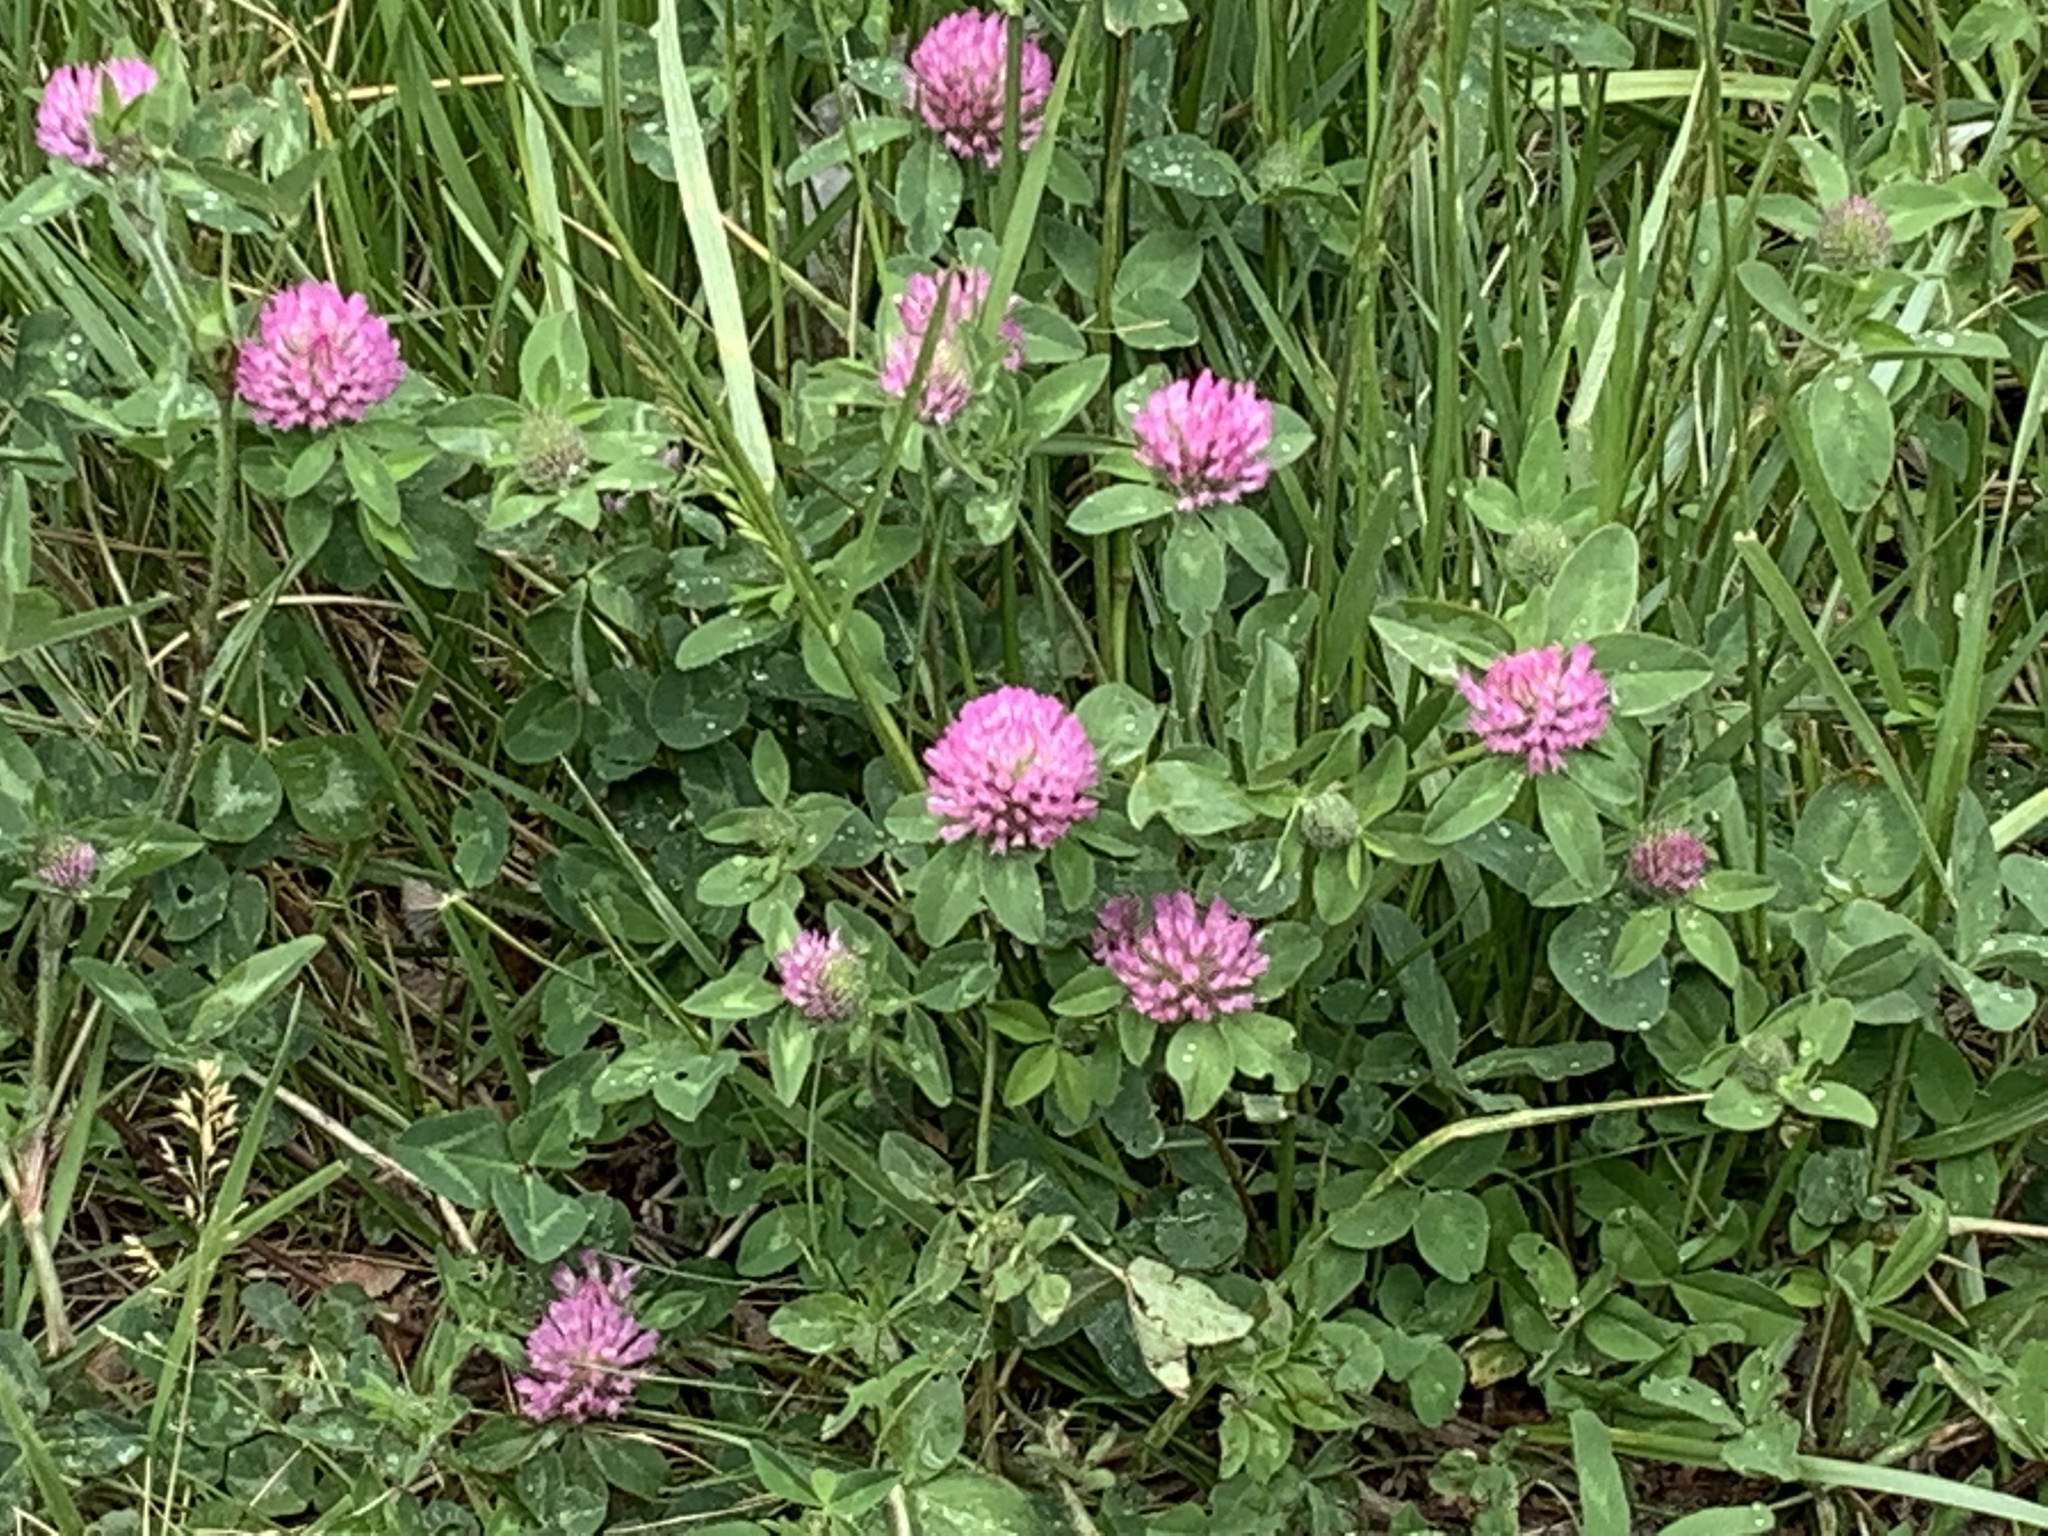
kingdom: Plantae
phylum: Tracheophyta
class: Magnoliopsida
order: Fabales
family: Fabaceae
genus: Trifolium
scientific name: Trifolium pratense
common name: Red clover
